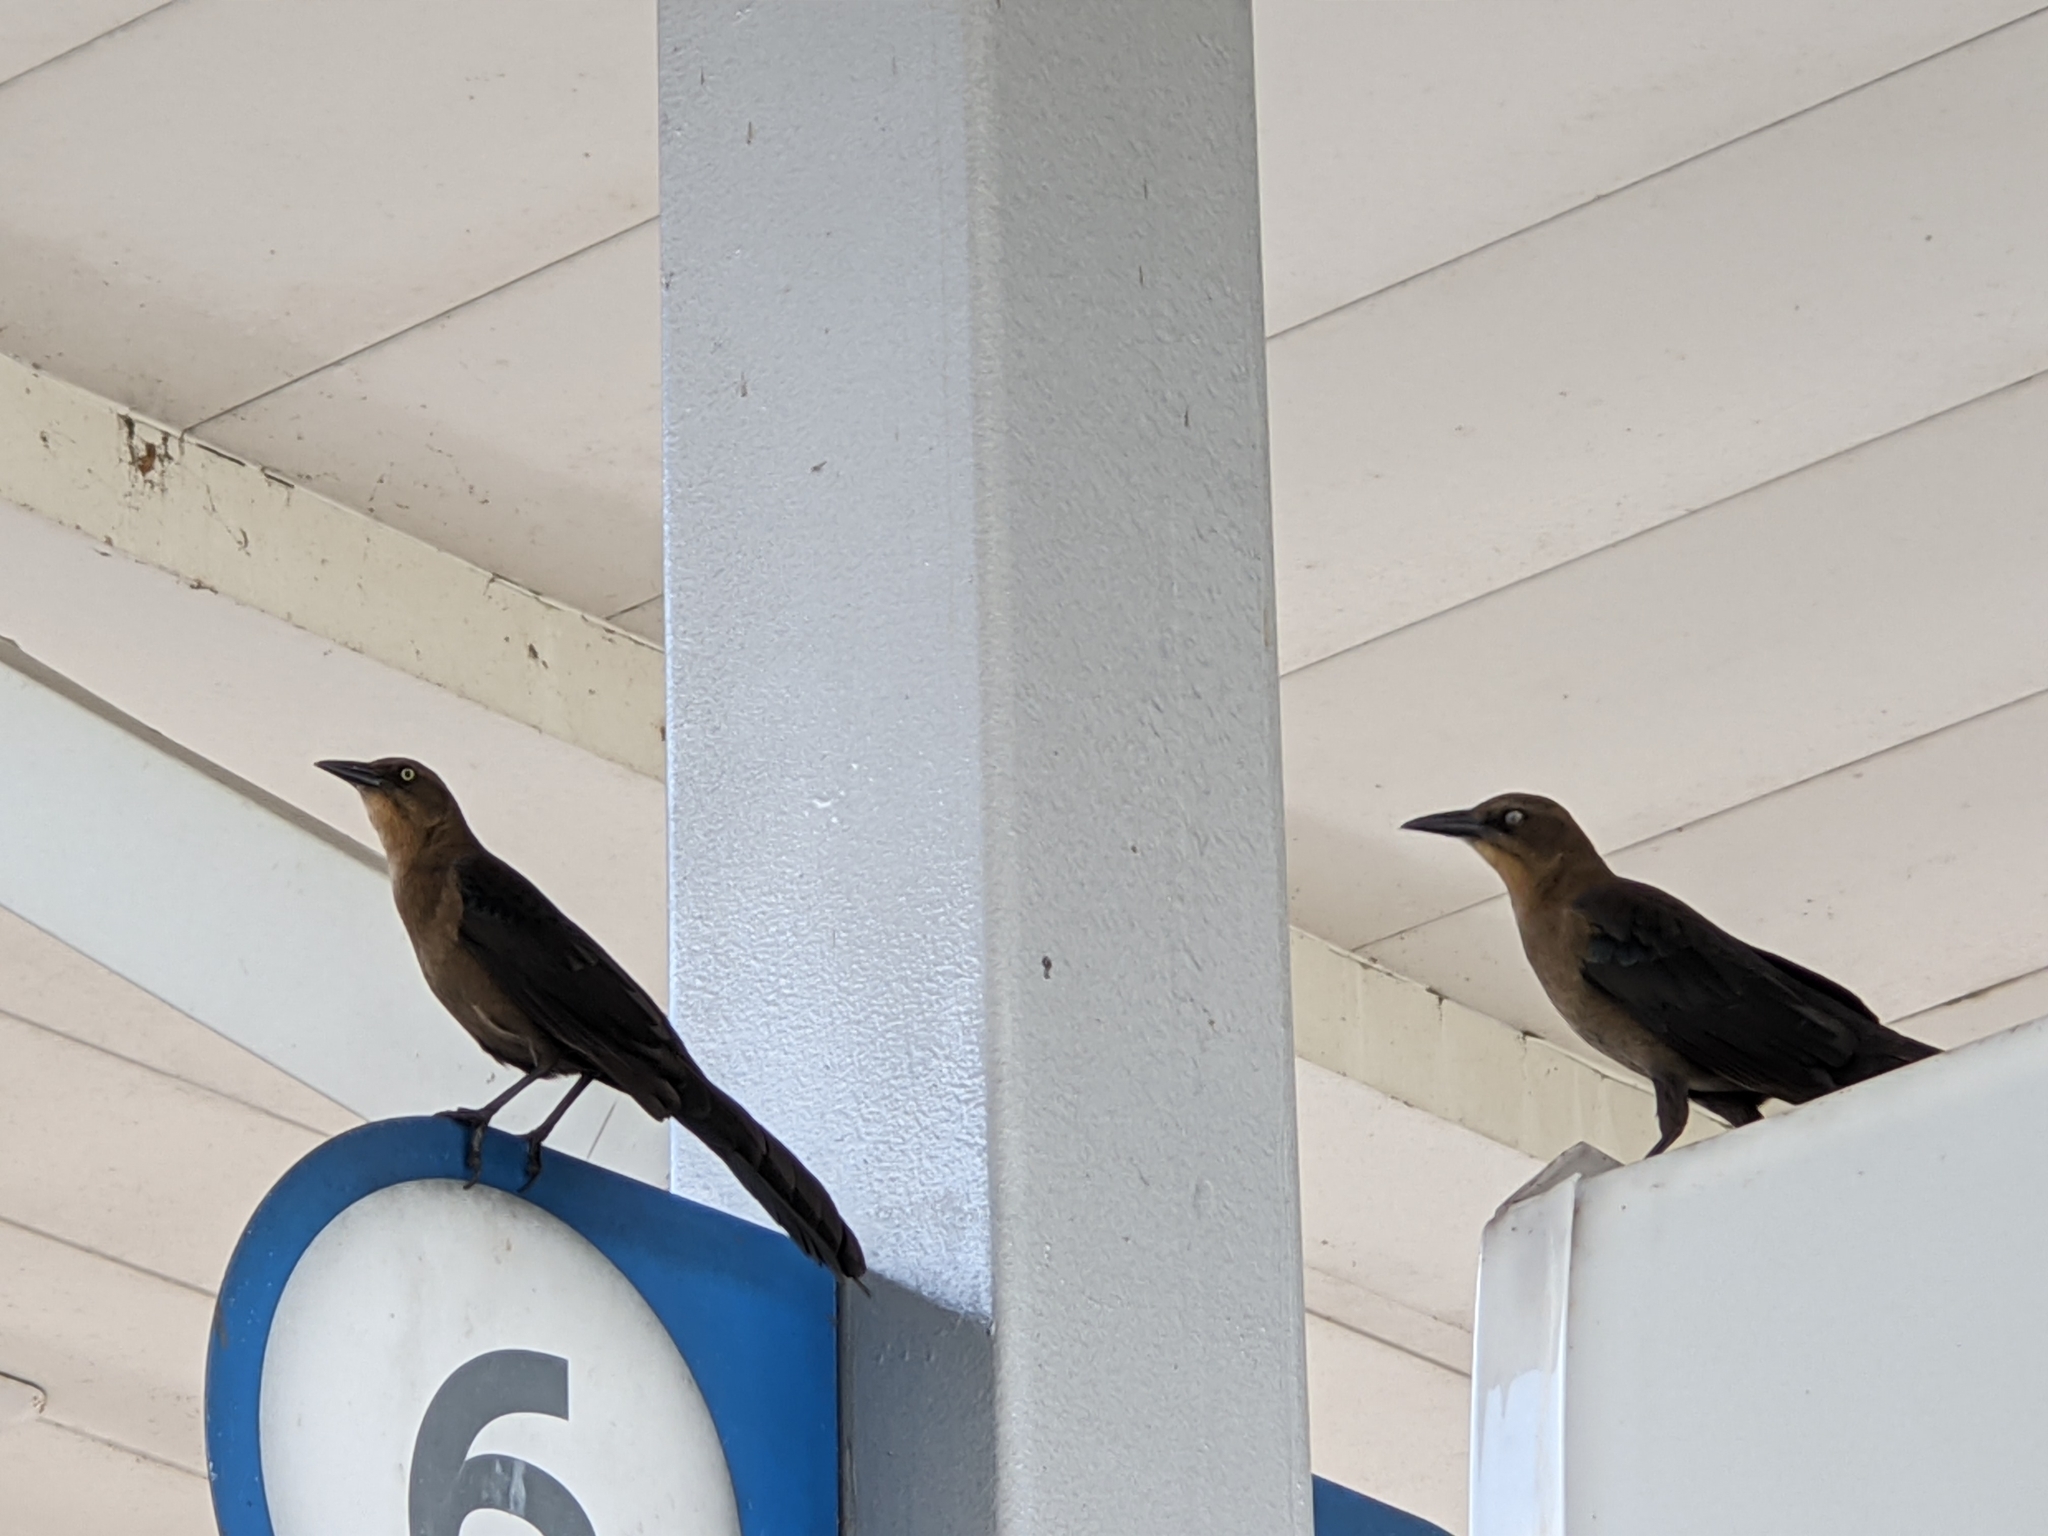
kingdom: Animalia
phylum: Chordata
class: Aves
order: Passeriformes
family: Icteridae
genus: Quiscalus
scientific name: Quiscalus mexicanus
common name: Great-tailed grackle
